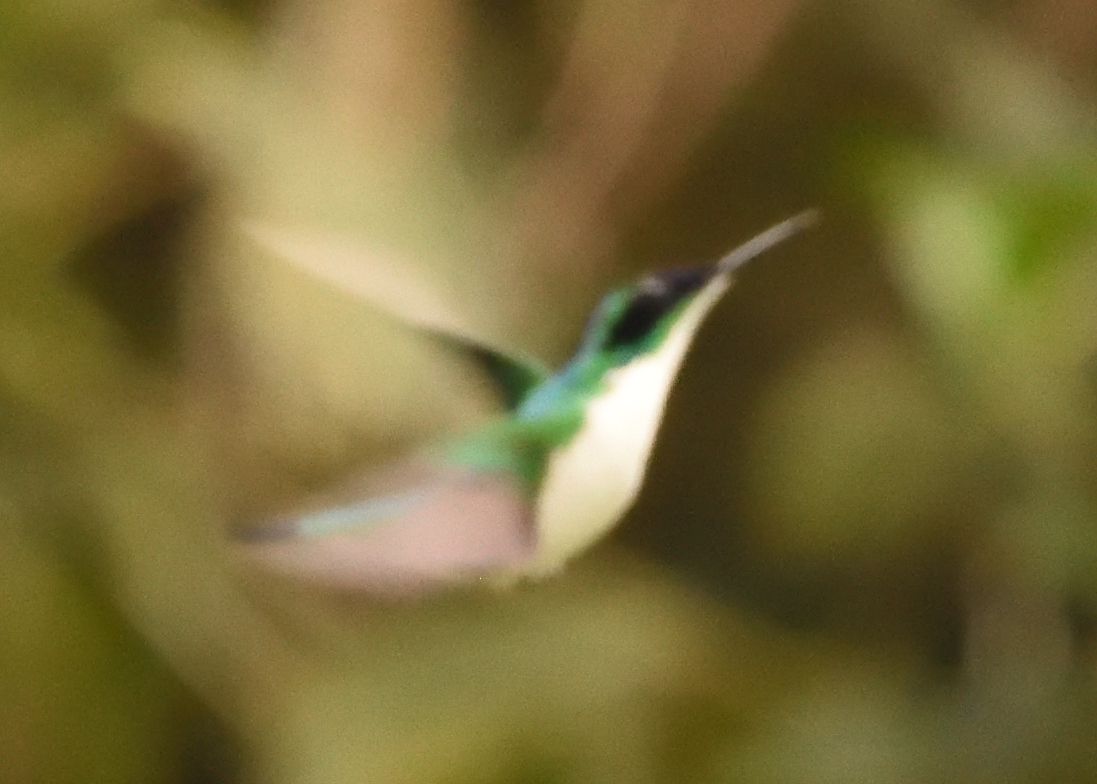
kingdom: Animalia
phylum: Chordata
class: Aves
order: Apodiformes
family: Trochilidae
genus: Heliothryx
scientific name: Heliothryx barroti
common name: Purple-crowned fairy
